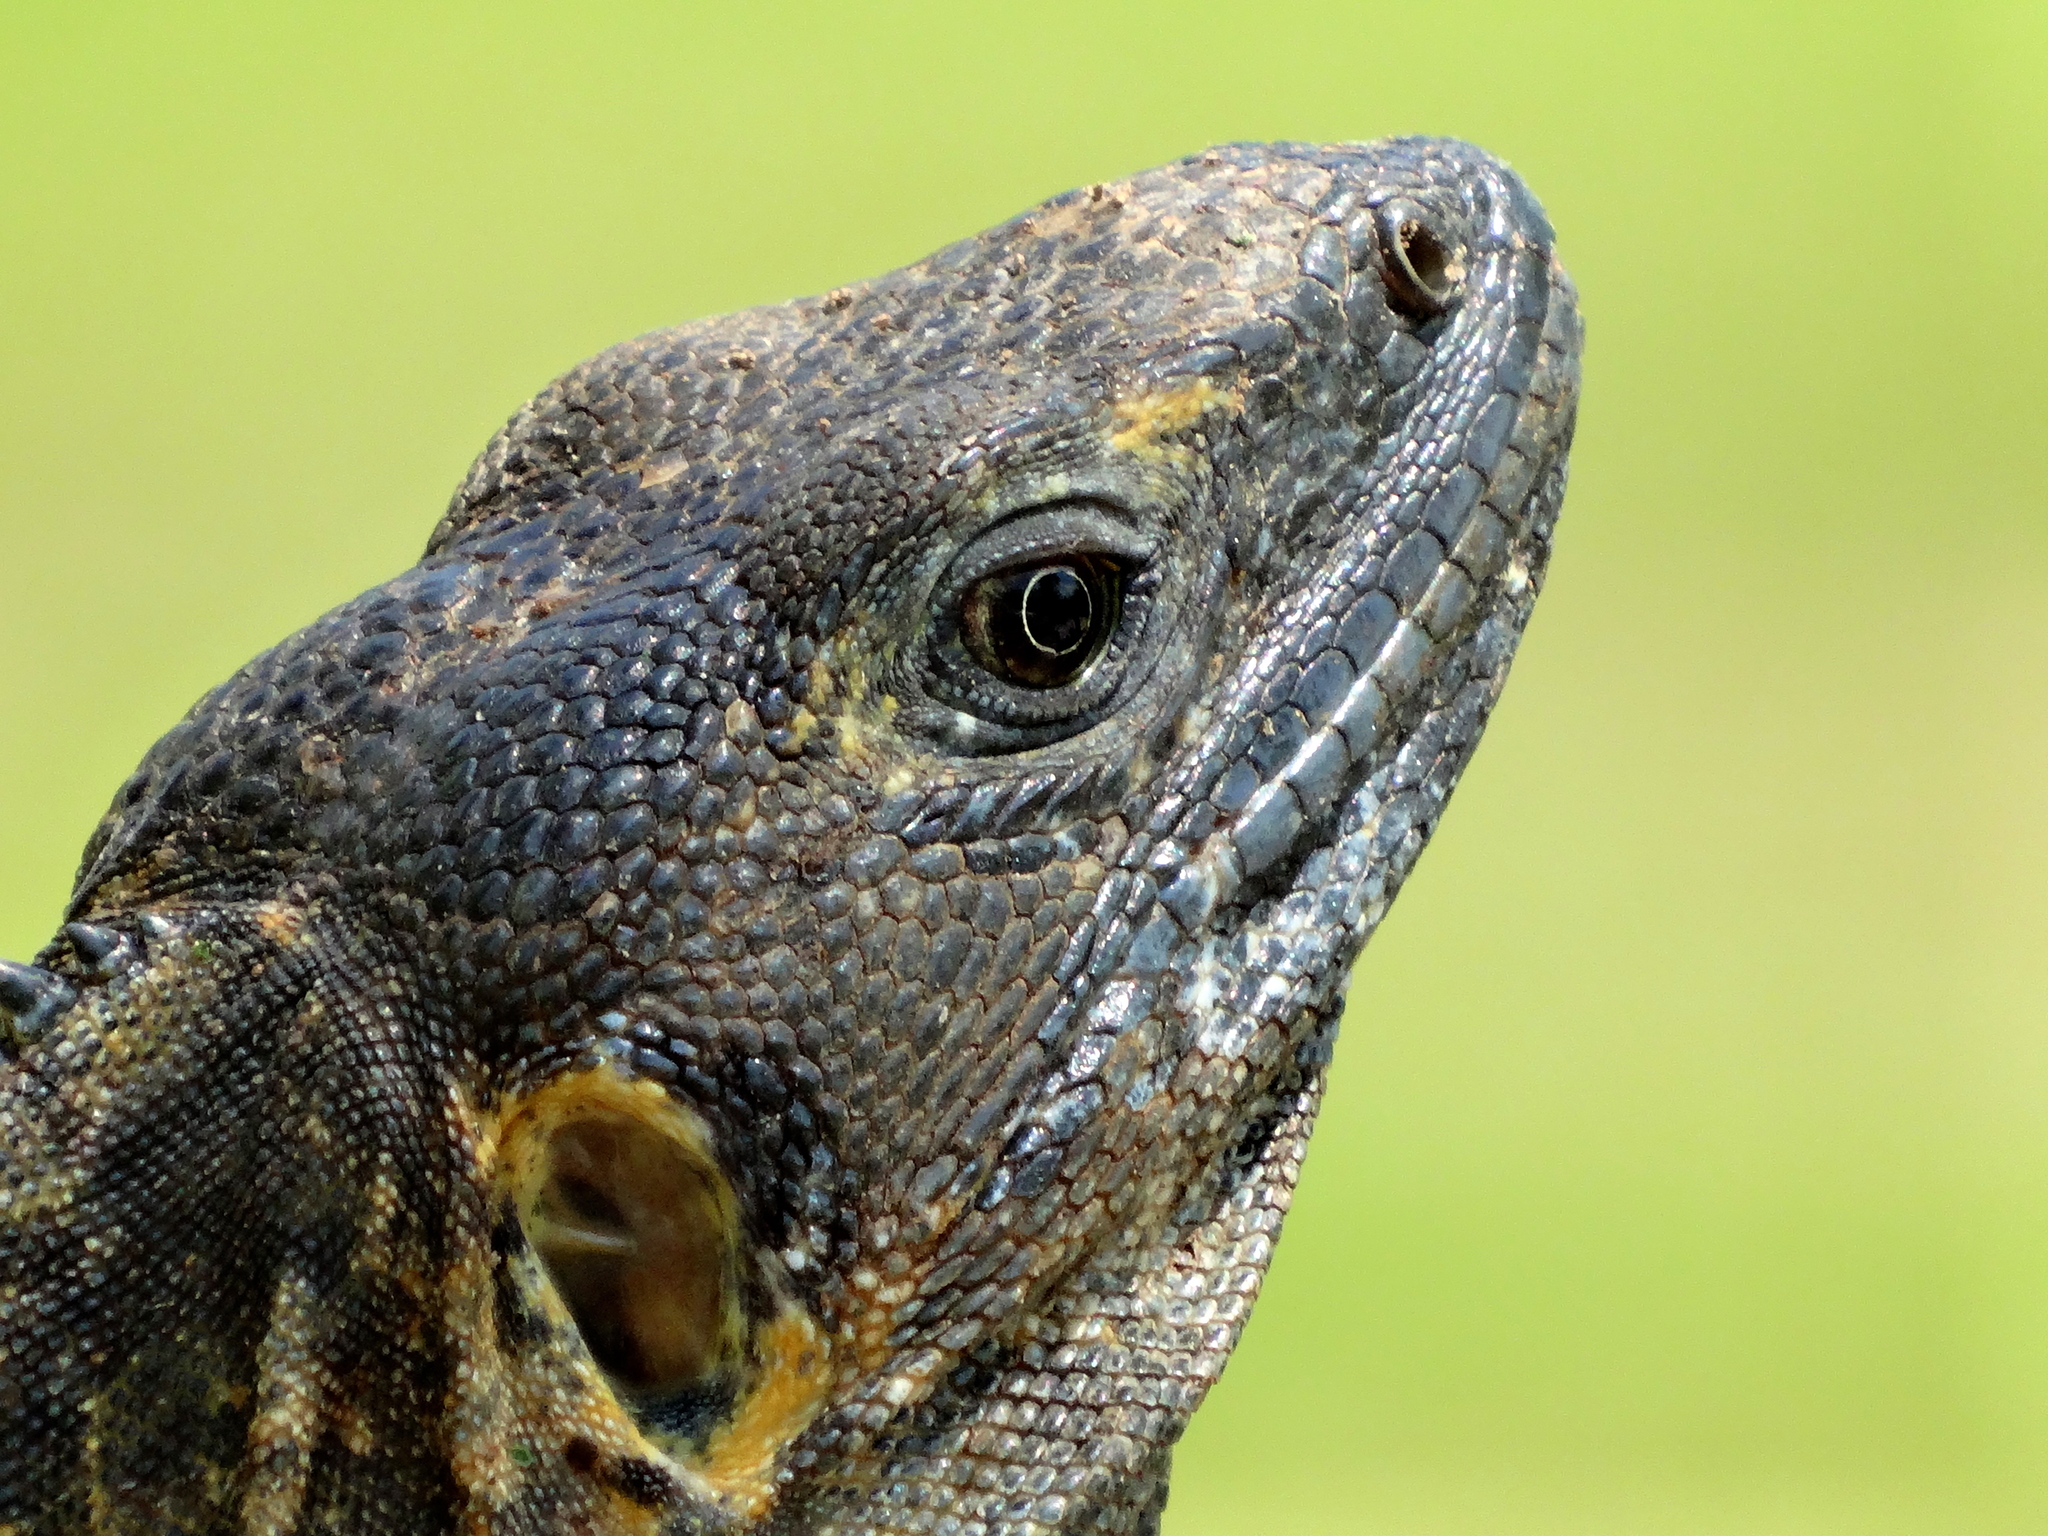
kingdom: Animalia
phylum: Chordata
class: Squamata
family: Iguanidae
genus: Ctenosaura
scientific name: Ctenosaura pectinata
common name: Guerreran spiny-tailed iguana
